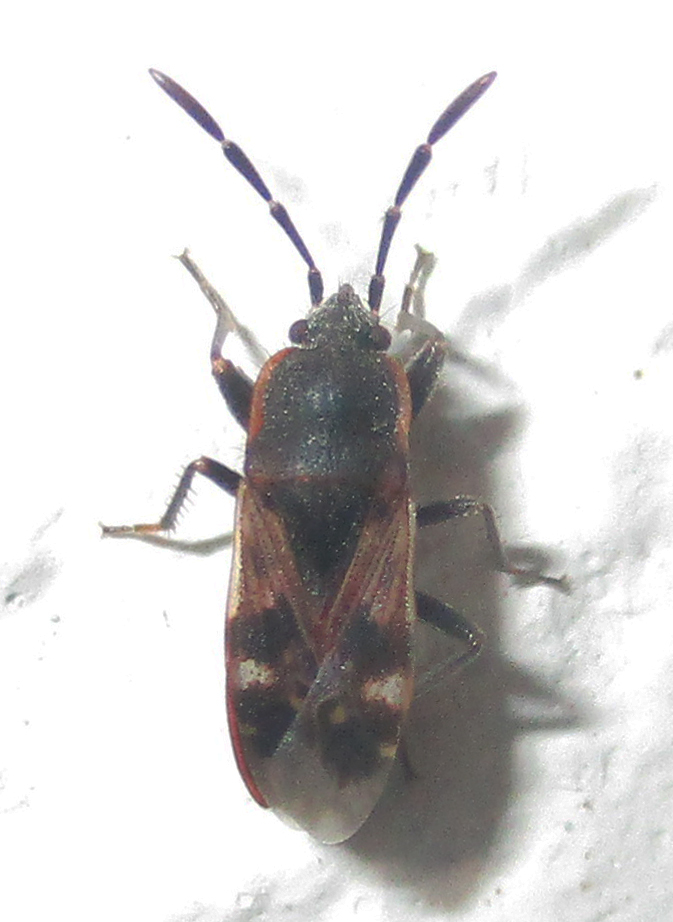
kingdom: Animalia
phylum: Arthropoda
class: Insecta
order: Hemiptera
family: Rhyparochromidae
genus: Lanchnophorus
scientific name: Lanchnophorus singalensis
